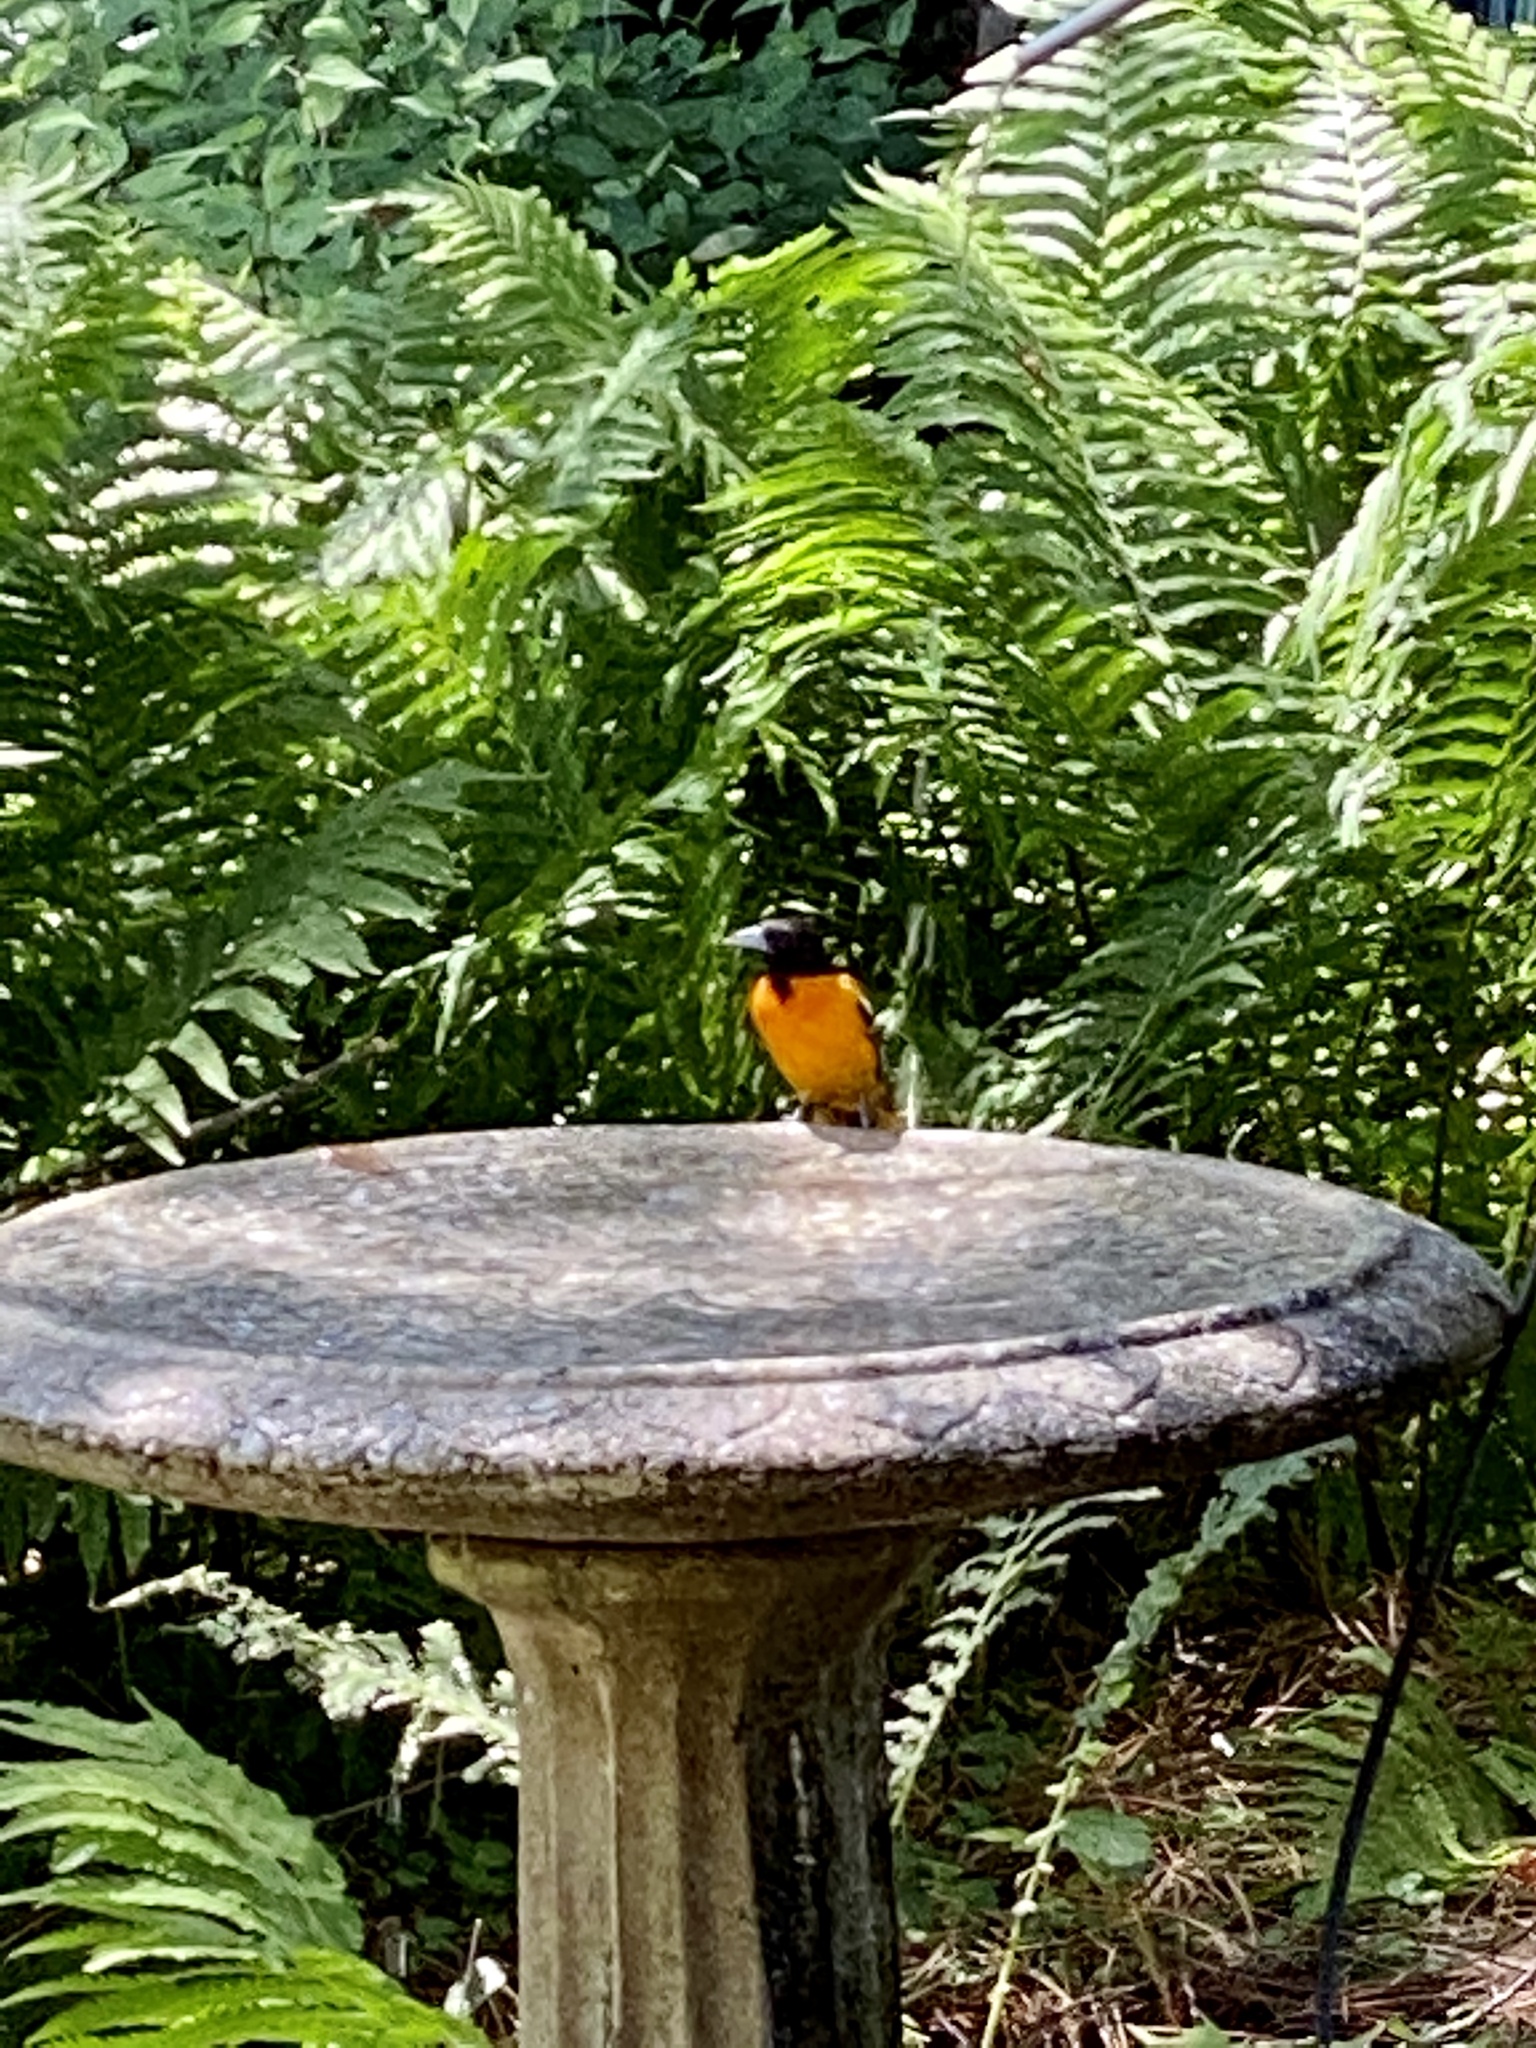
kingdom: Animalia
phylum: Chordata
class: Aves
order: Passeriformes
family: Icteridae
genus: Icterus
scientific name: Icterus galbula
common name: Baltimore oriole
